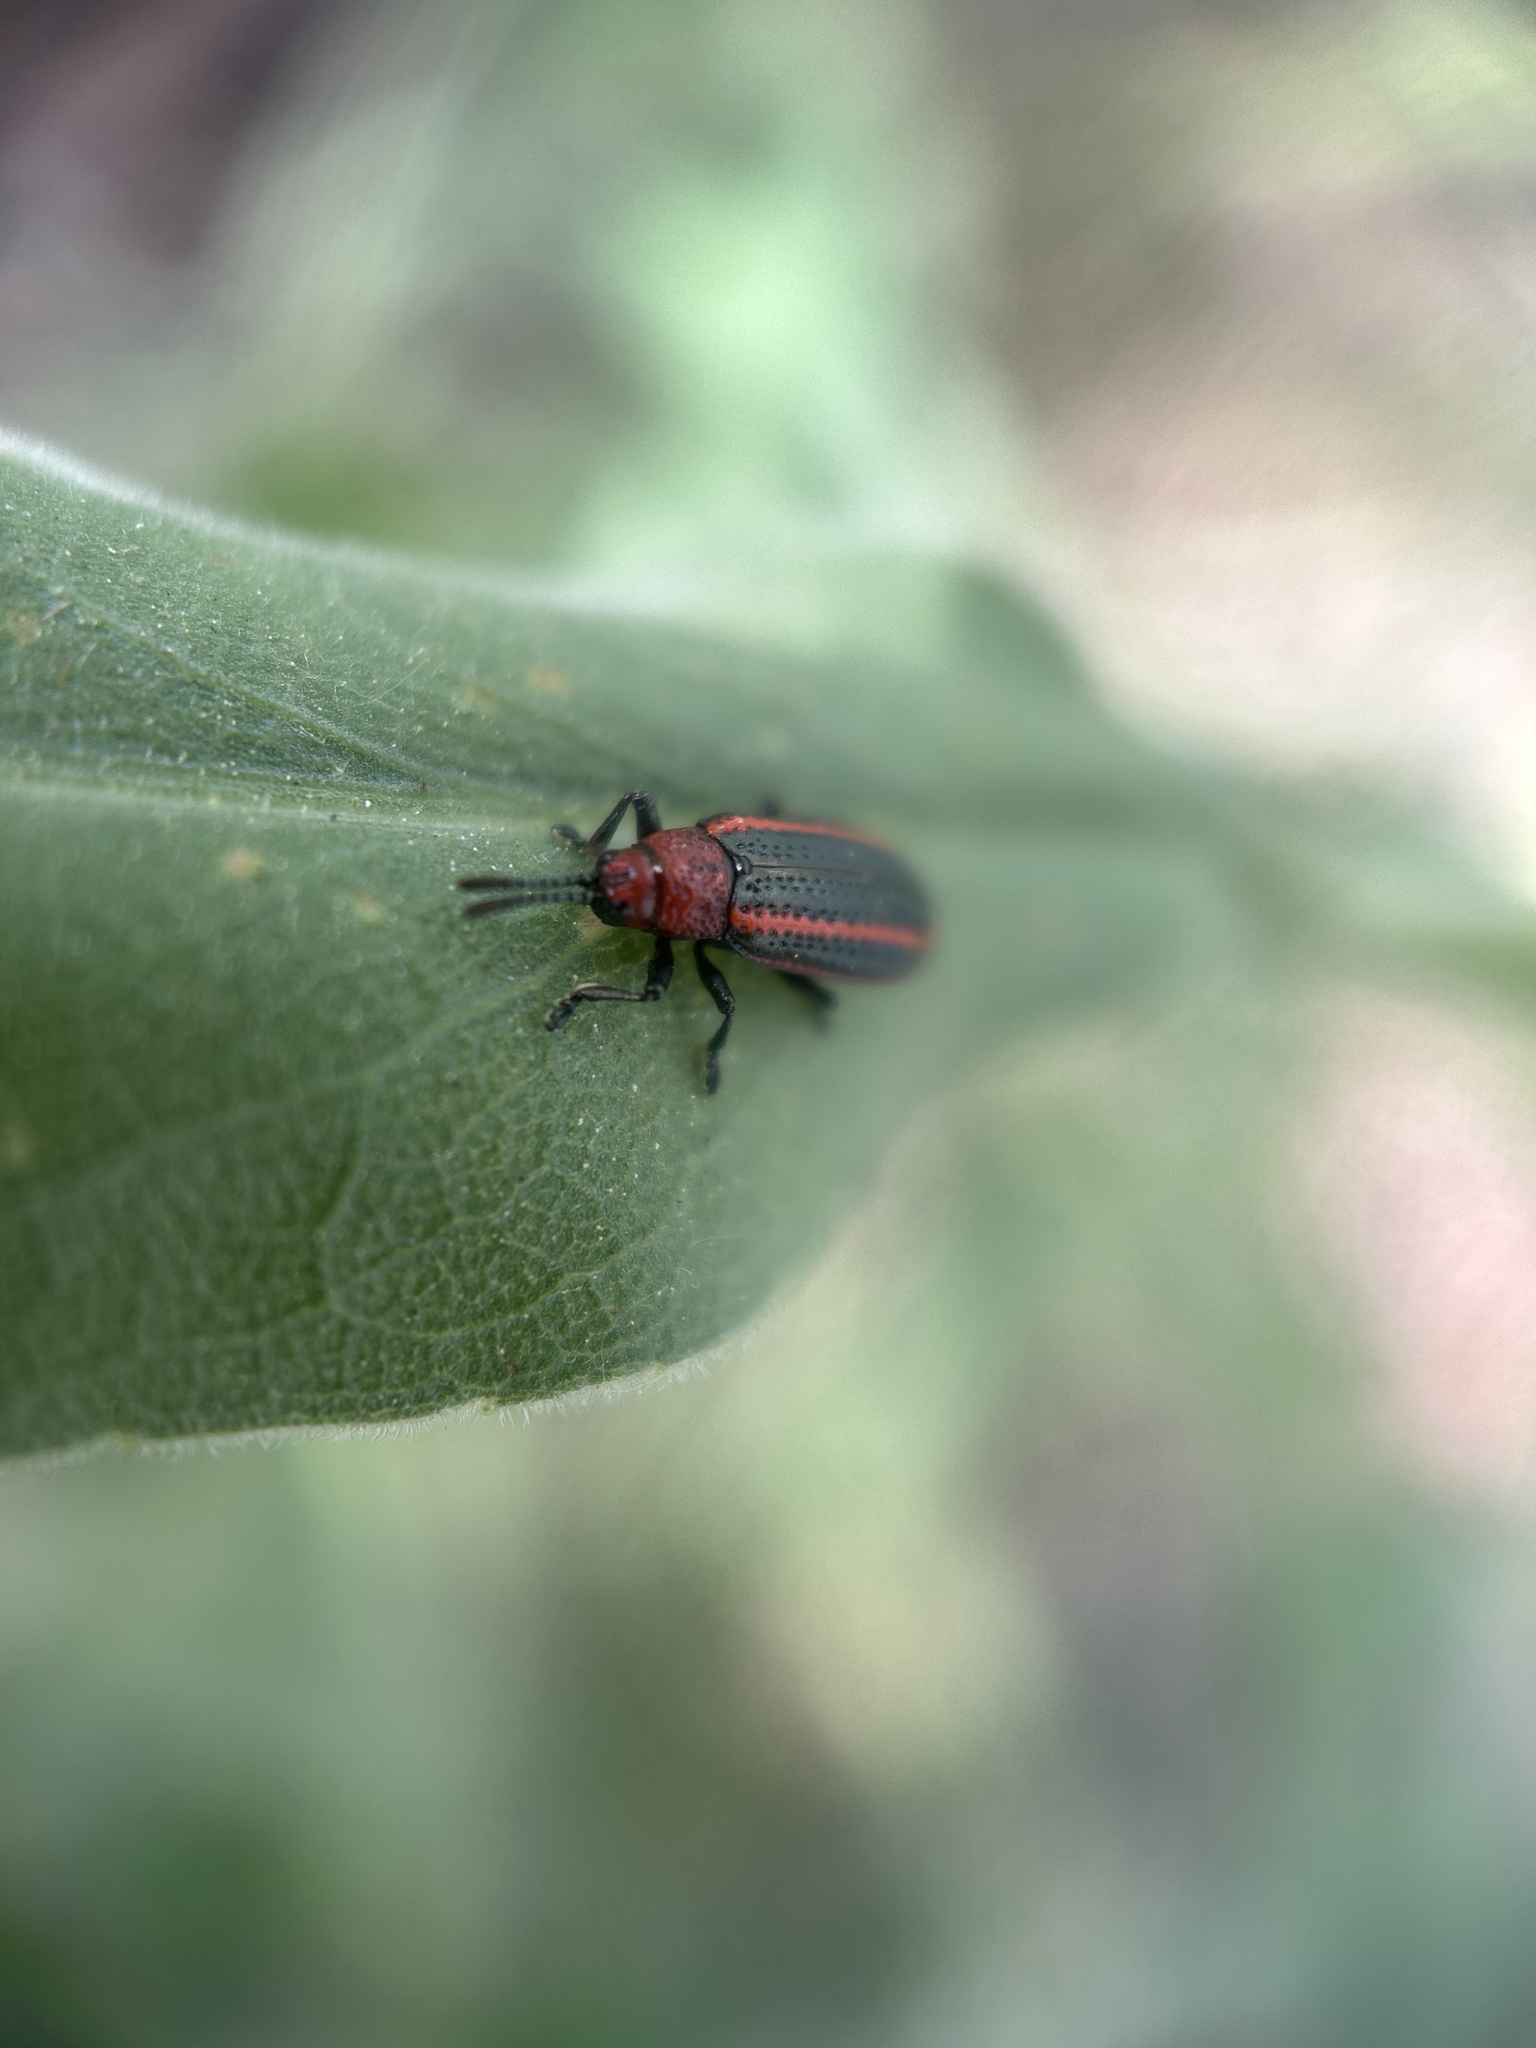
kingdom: Animalia
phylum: Arthropoda
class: Insecta
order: Coleoptera
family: Chrysomelidae
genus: Microrhopala
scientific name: Microrhopala vittata
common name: Goldenrod leaf miner beetle
